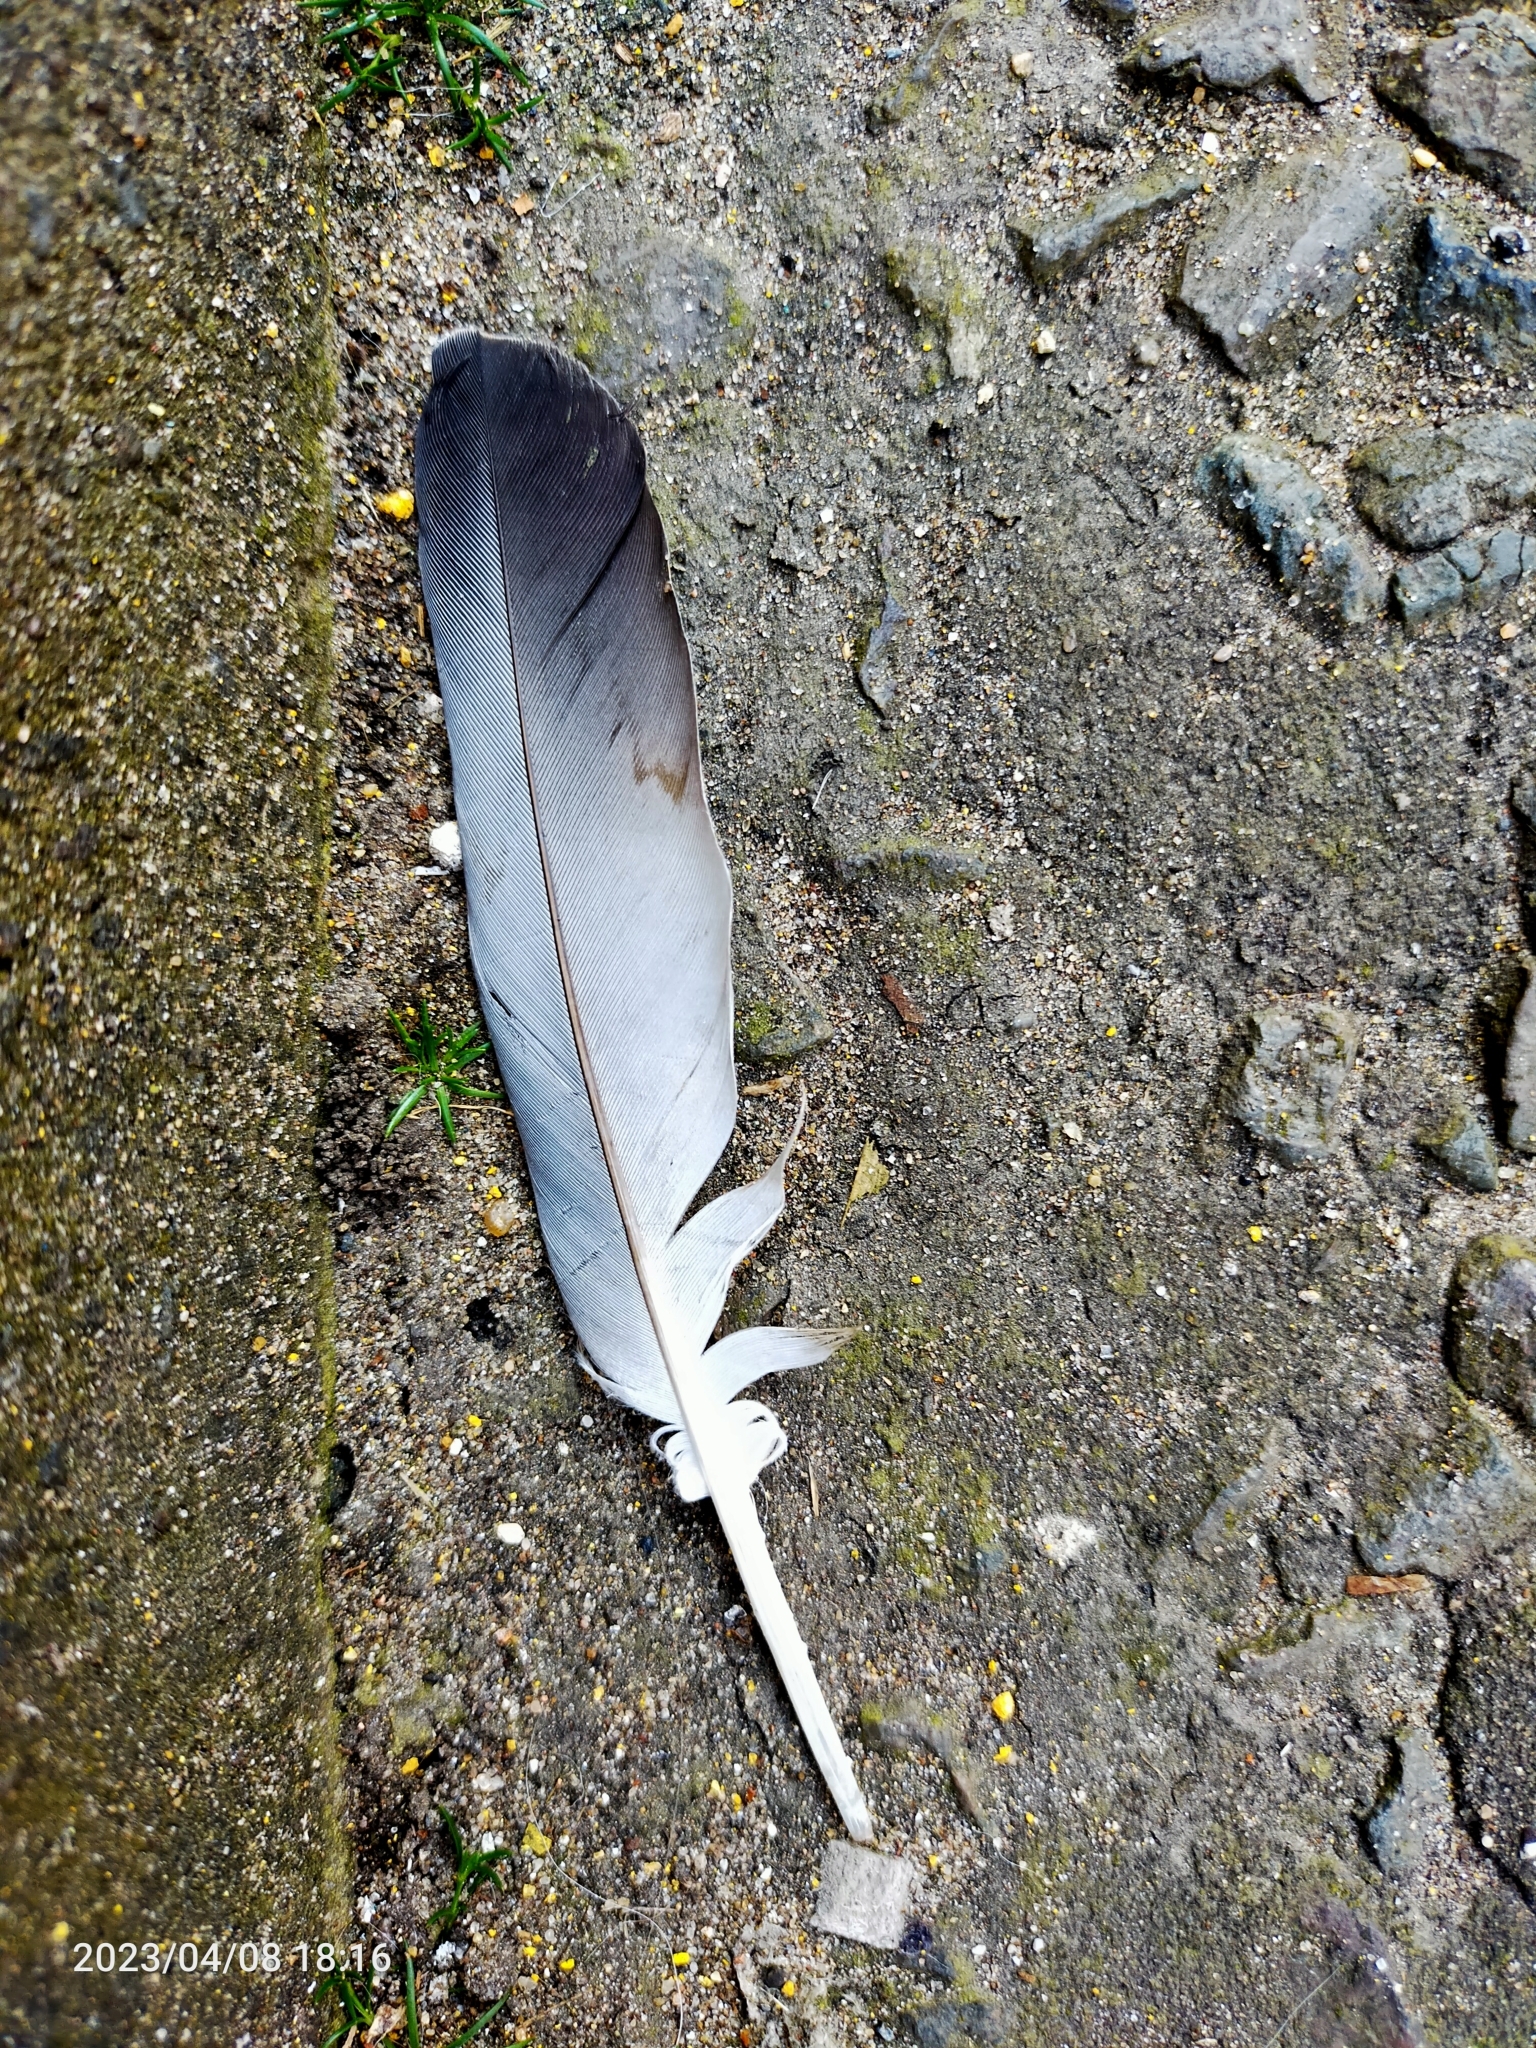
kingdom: Animalia
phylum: Chordata
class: Aves
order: Columbiformes
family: Columbidae
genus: Columba
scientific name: Columba livia
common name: Rock pigeon
